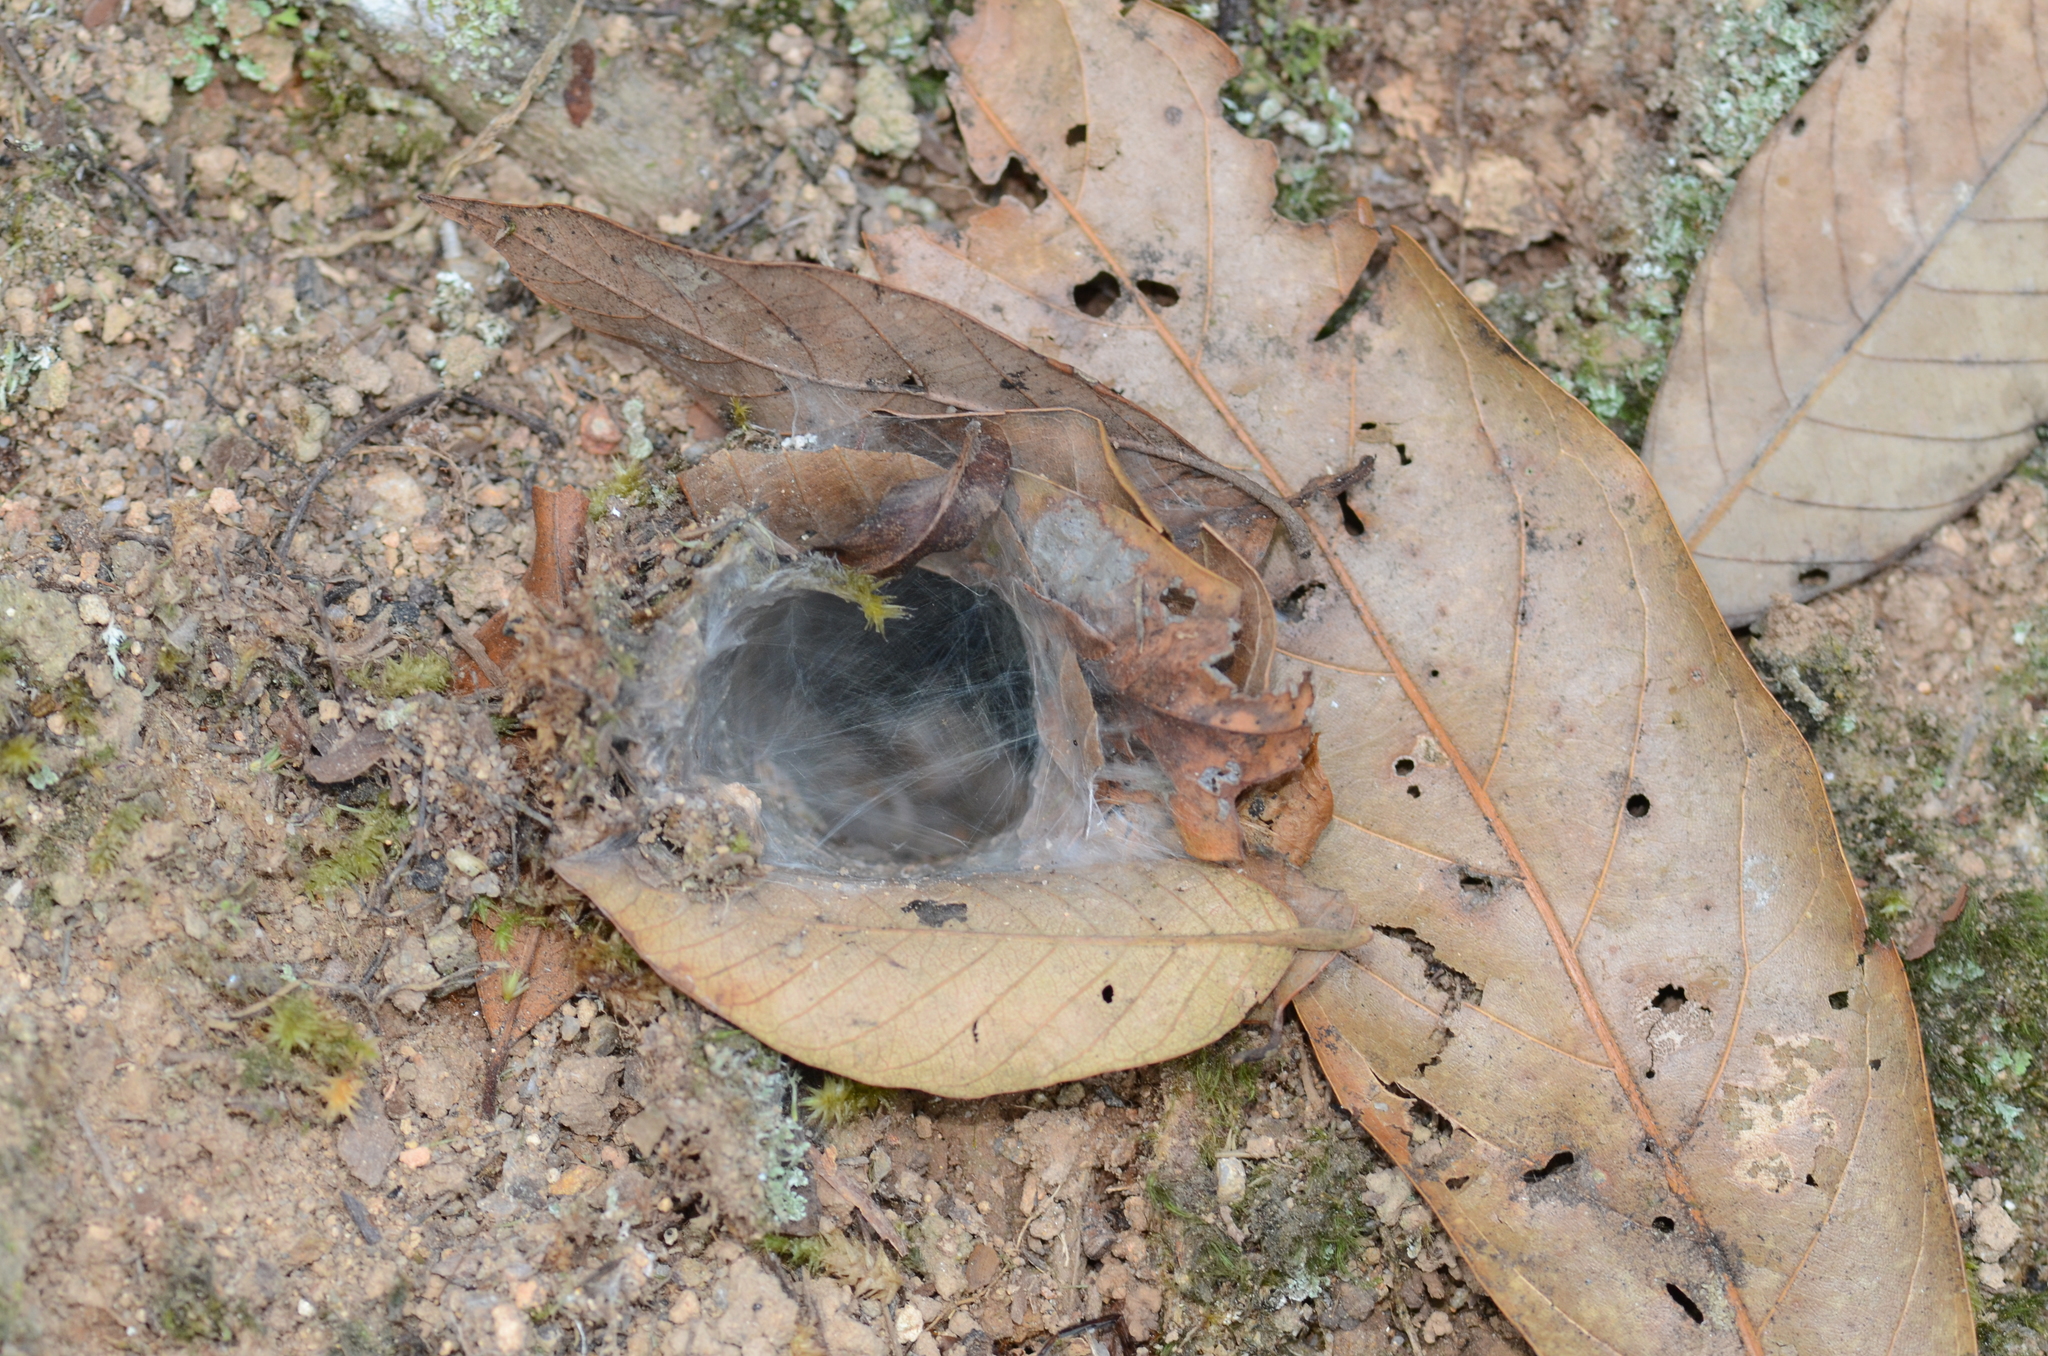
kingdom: Animalia
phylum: Arthropoda
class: Arachnida
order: Araneae
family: Theraphosidae
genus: Coremiocnemis
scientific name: Coremiocnemis hoggi
